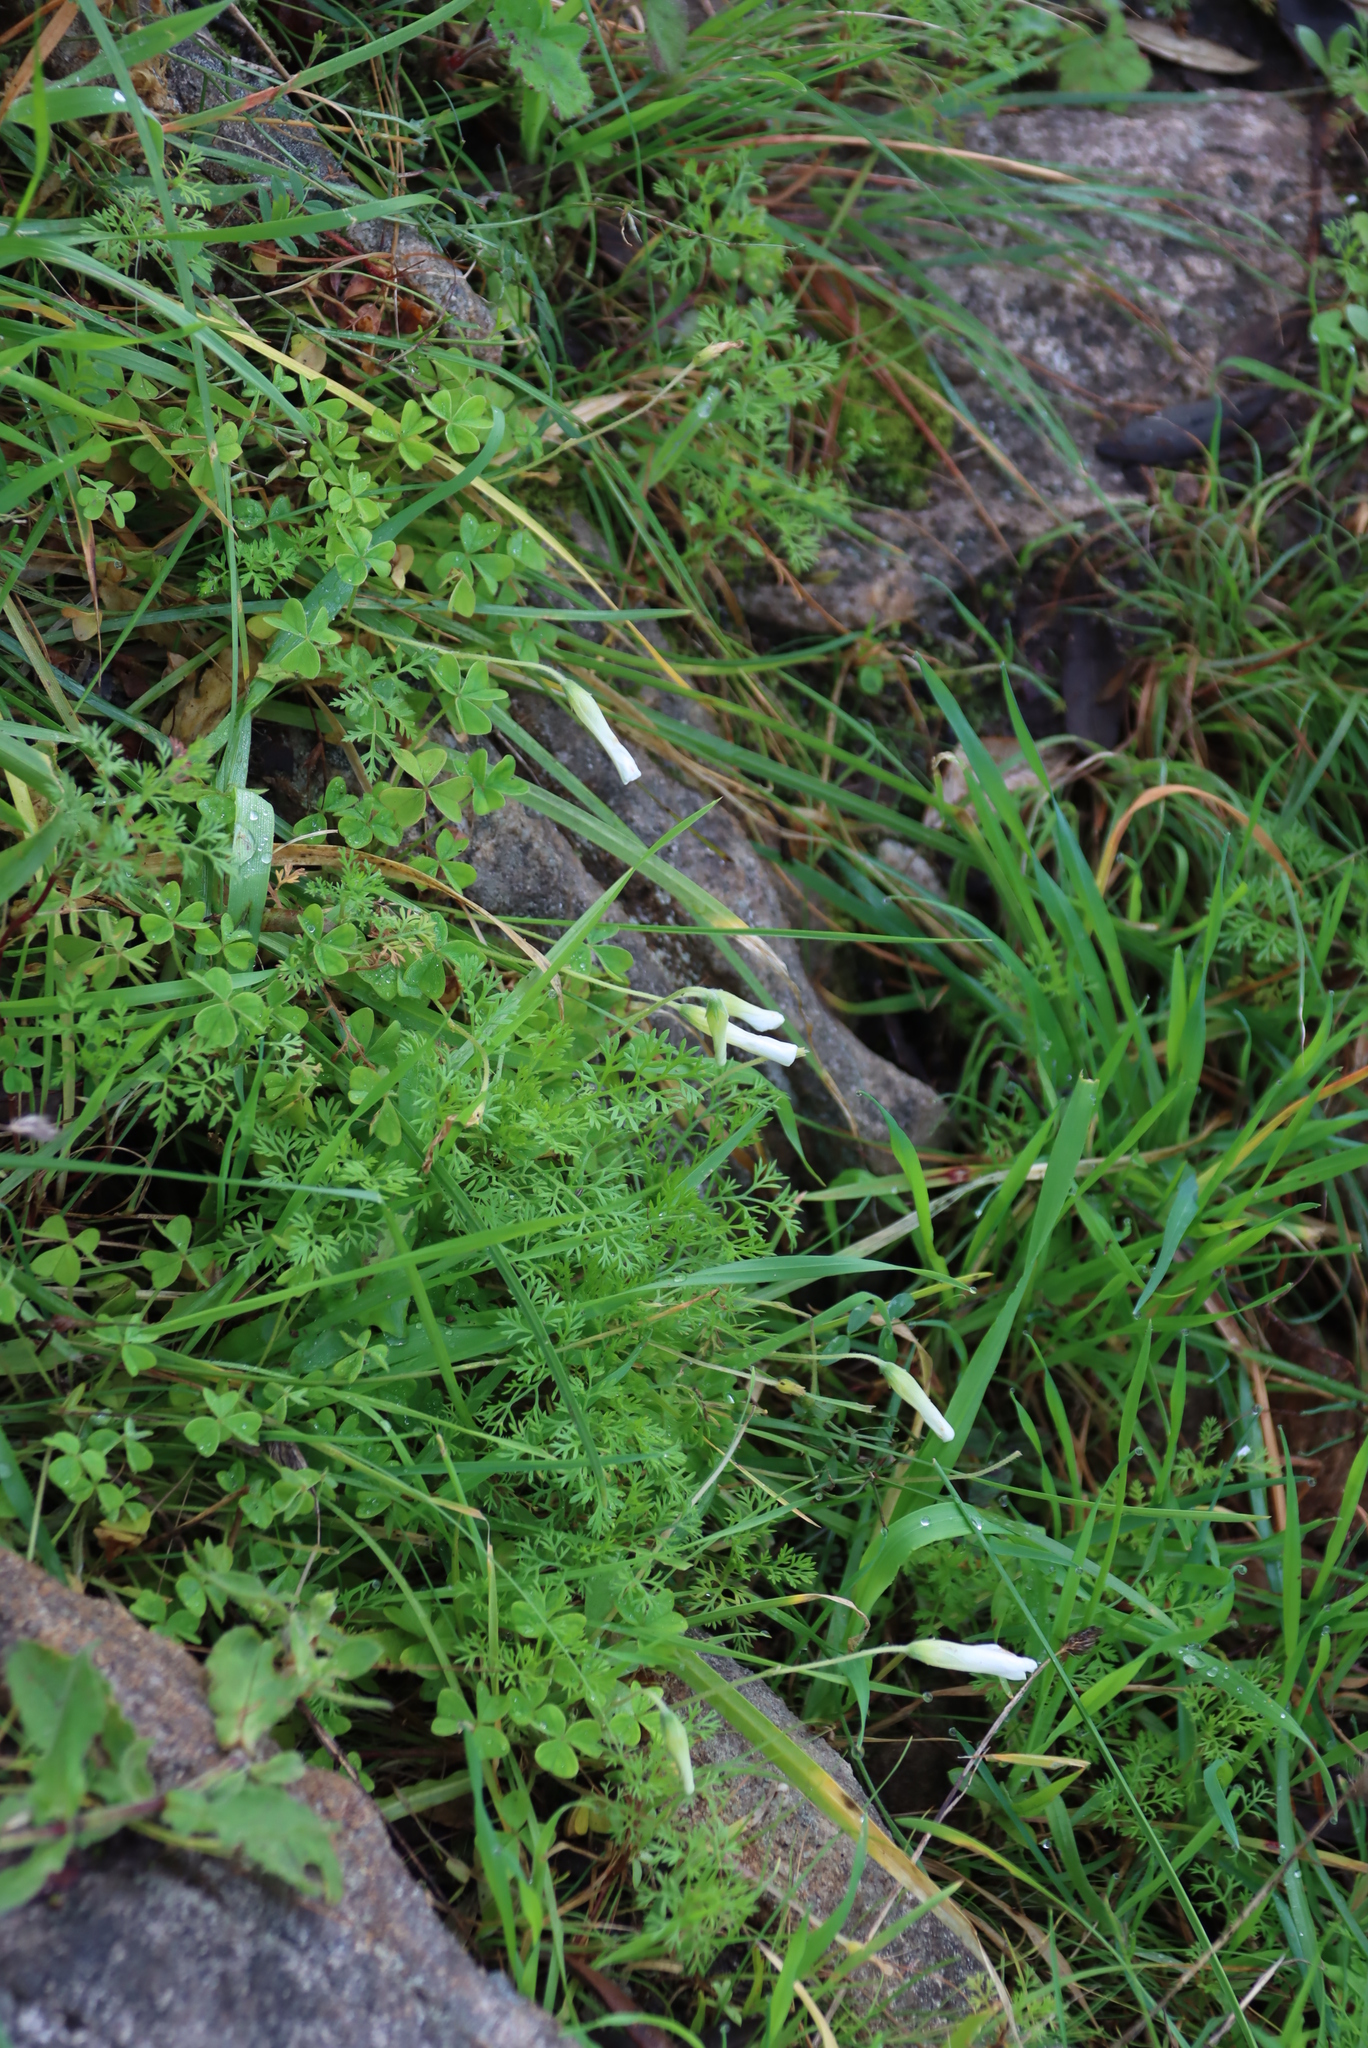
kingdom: Plantae
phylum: Tracheophyta
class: Magnoliopsida
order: Oxalidales
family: Oxalidaceae
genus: Oxalis
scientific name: Oxalis lanata
